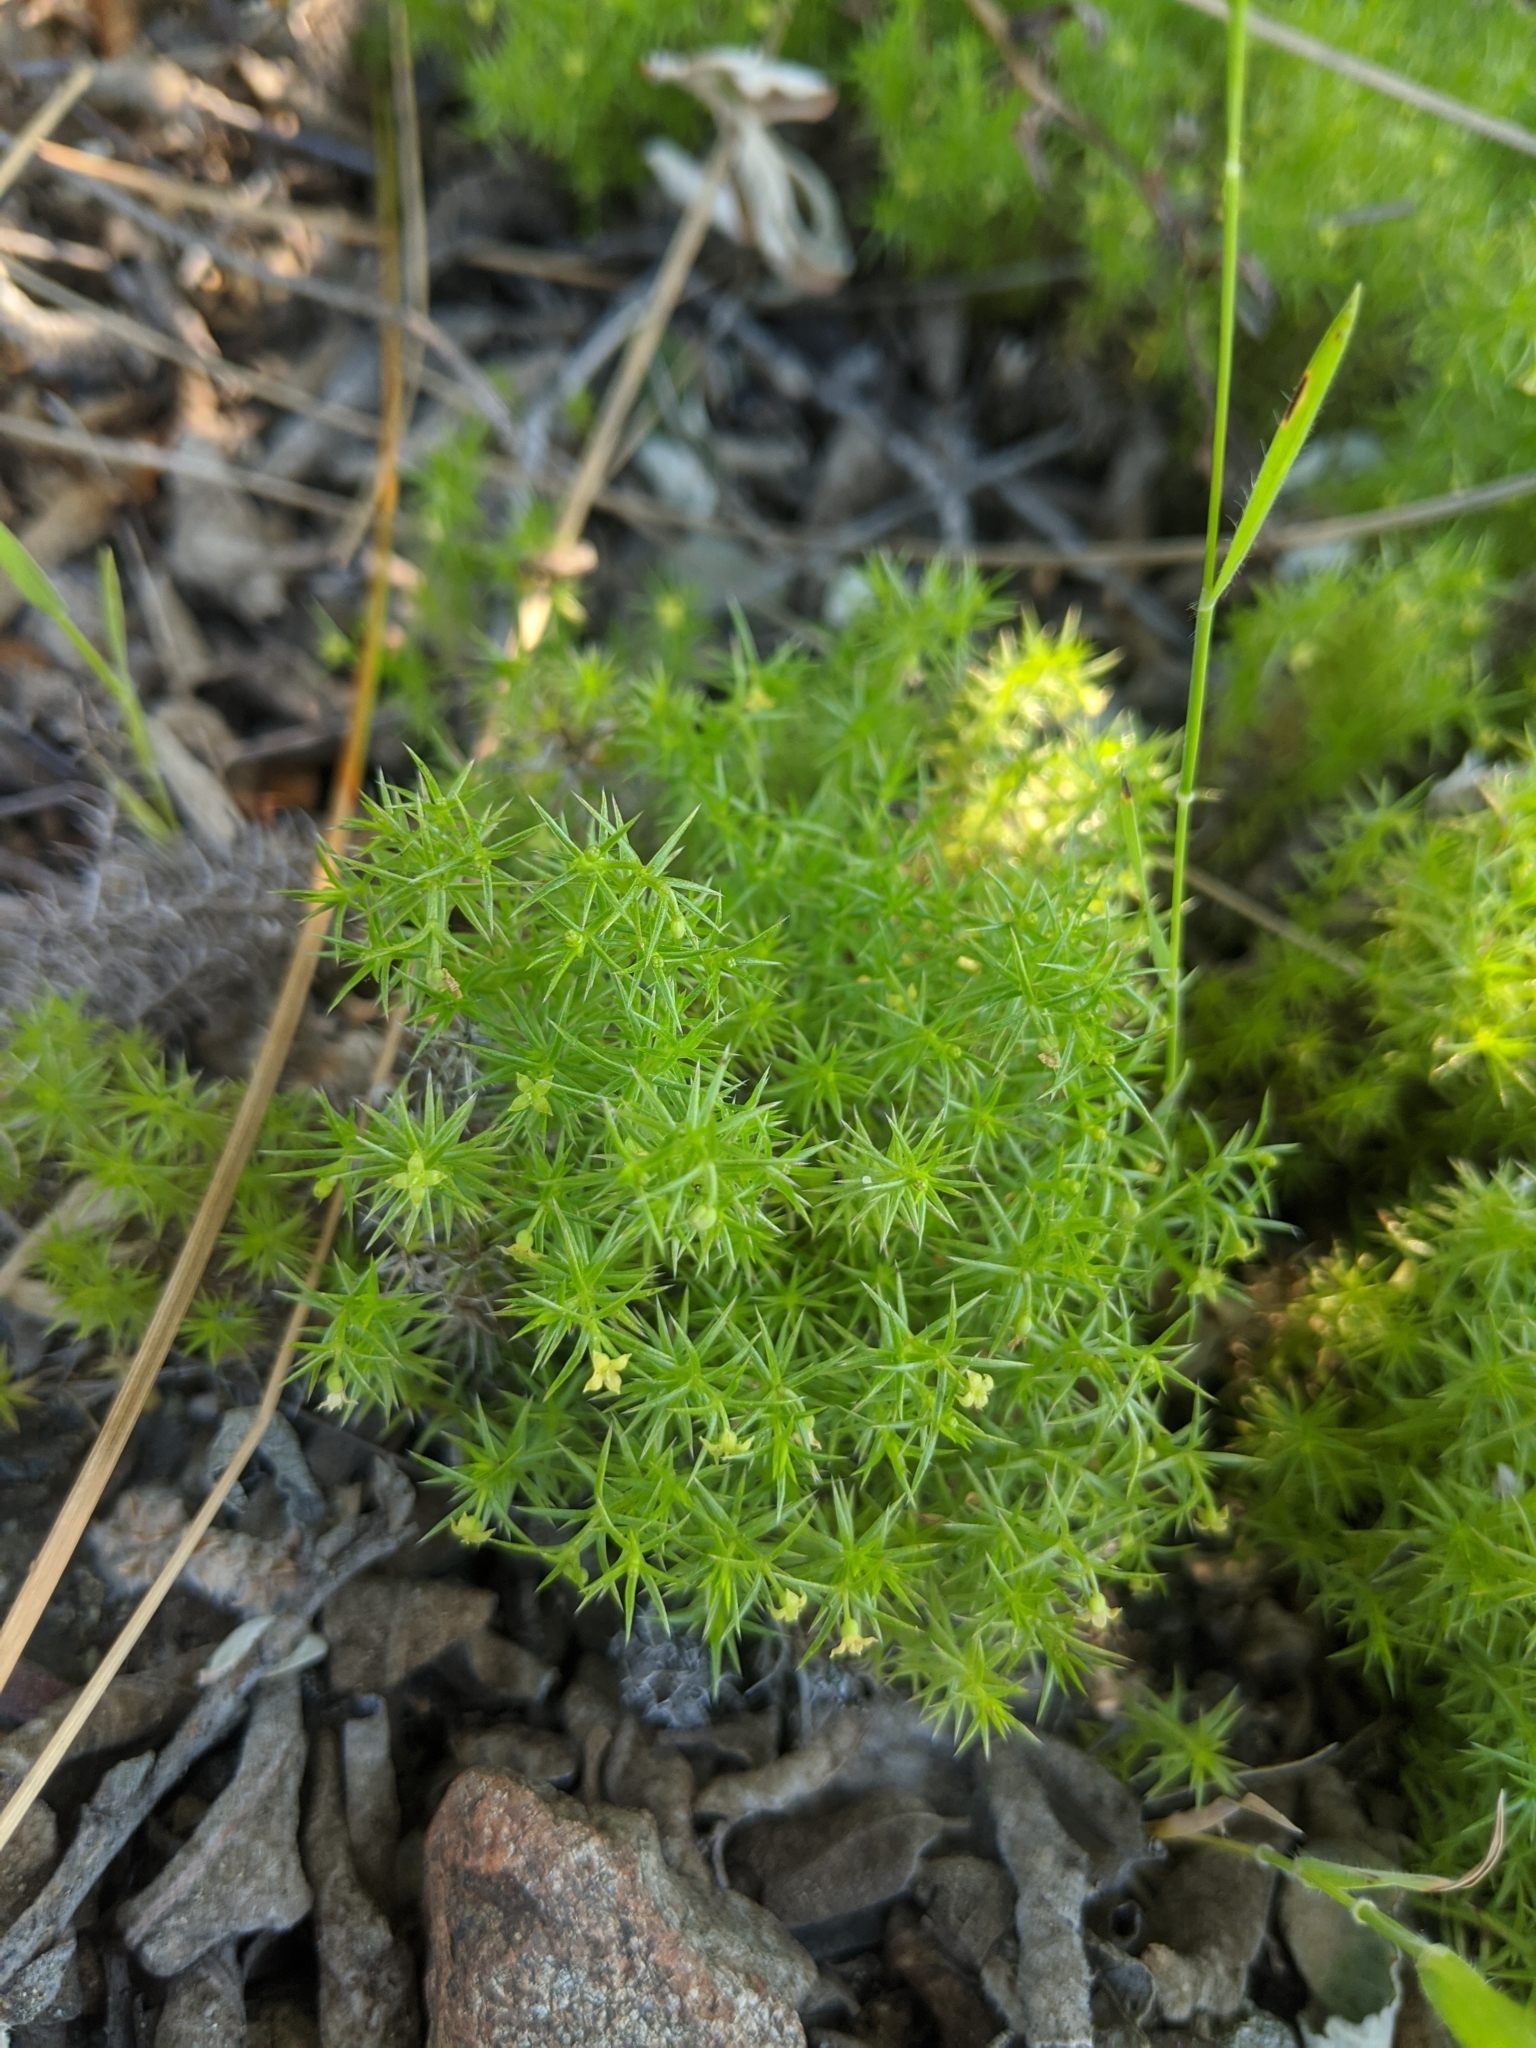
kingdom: Plantae
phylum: Tracheophyta
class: Magnoliopsida
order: Gentianales
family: Rubiaceae
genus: Galium
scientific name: Galium andrewsii
